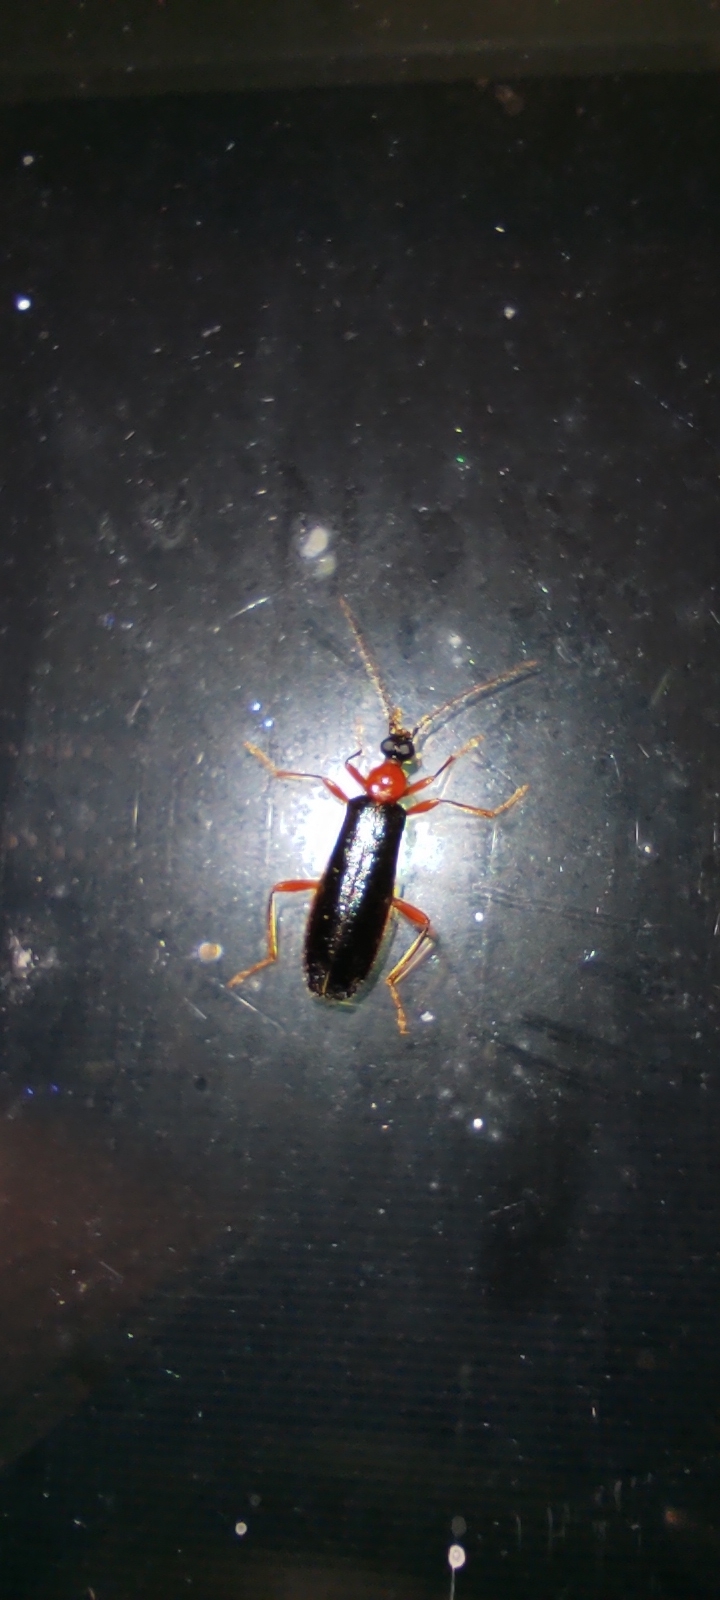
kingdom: Animalia
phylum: Arthropoda
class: Insecta
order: Coleoptera
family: Pyrochroidae
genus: Dendroides
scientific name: Dendroides canadensis
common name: Canada fire-colored beetle
